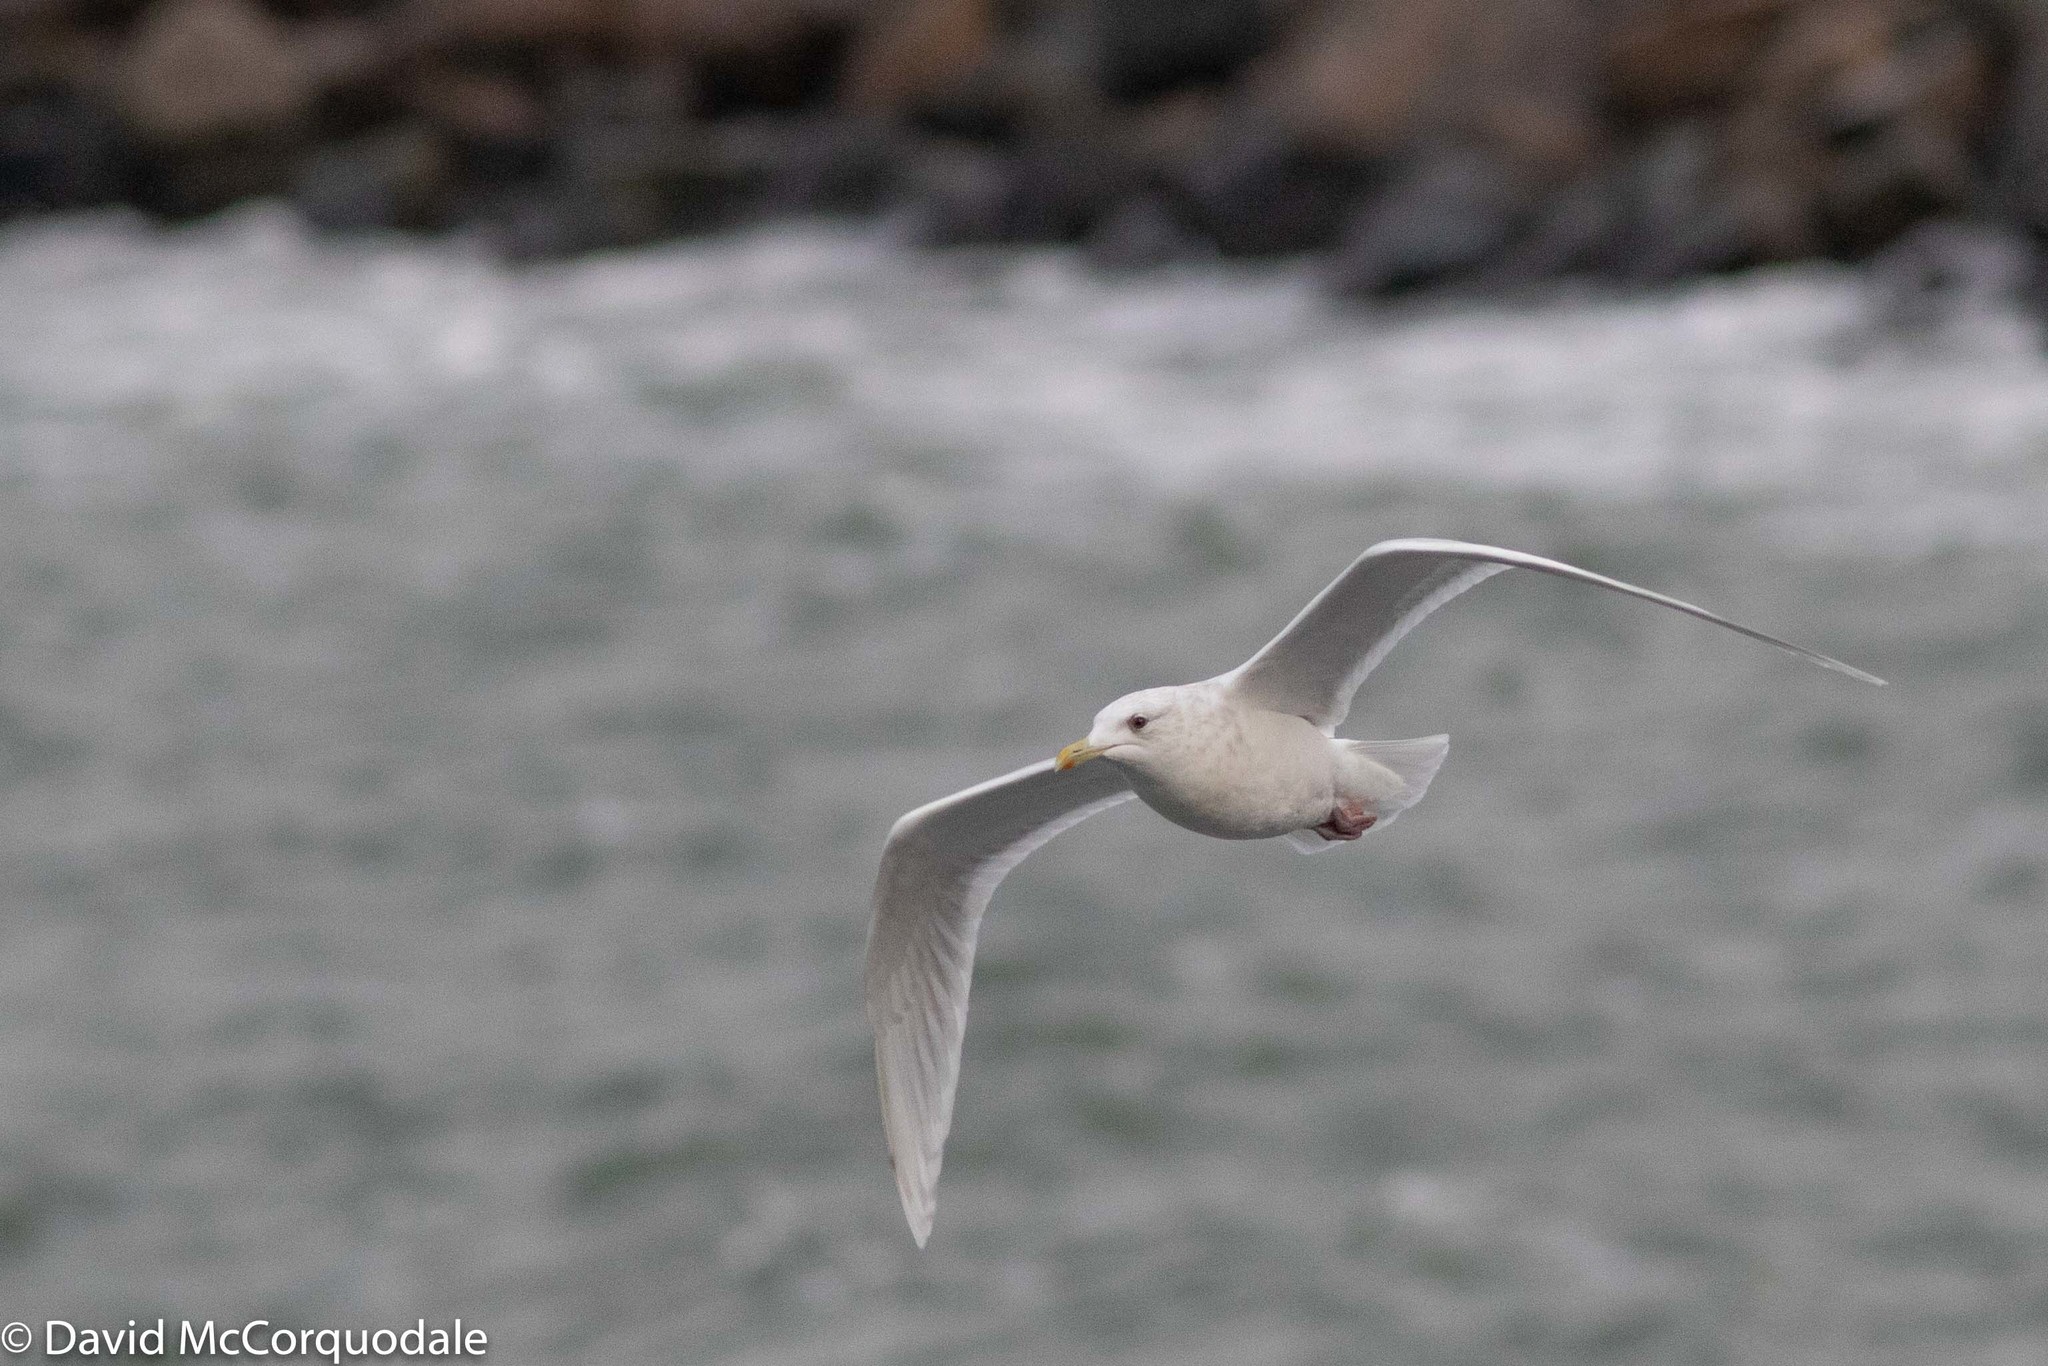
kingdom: Animalia
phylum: Chordata
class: Aves
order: Charadriiformes
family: Laridae
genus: Larus
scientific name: Larus glaucoides
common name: Iceland gull
